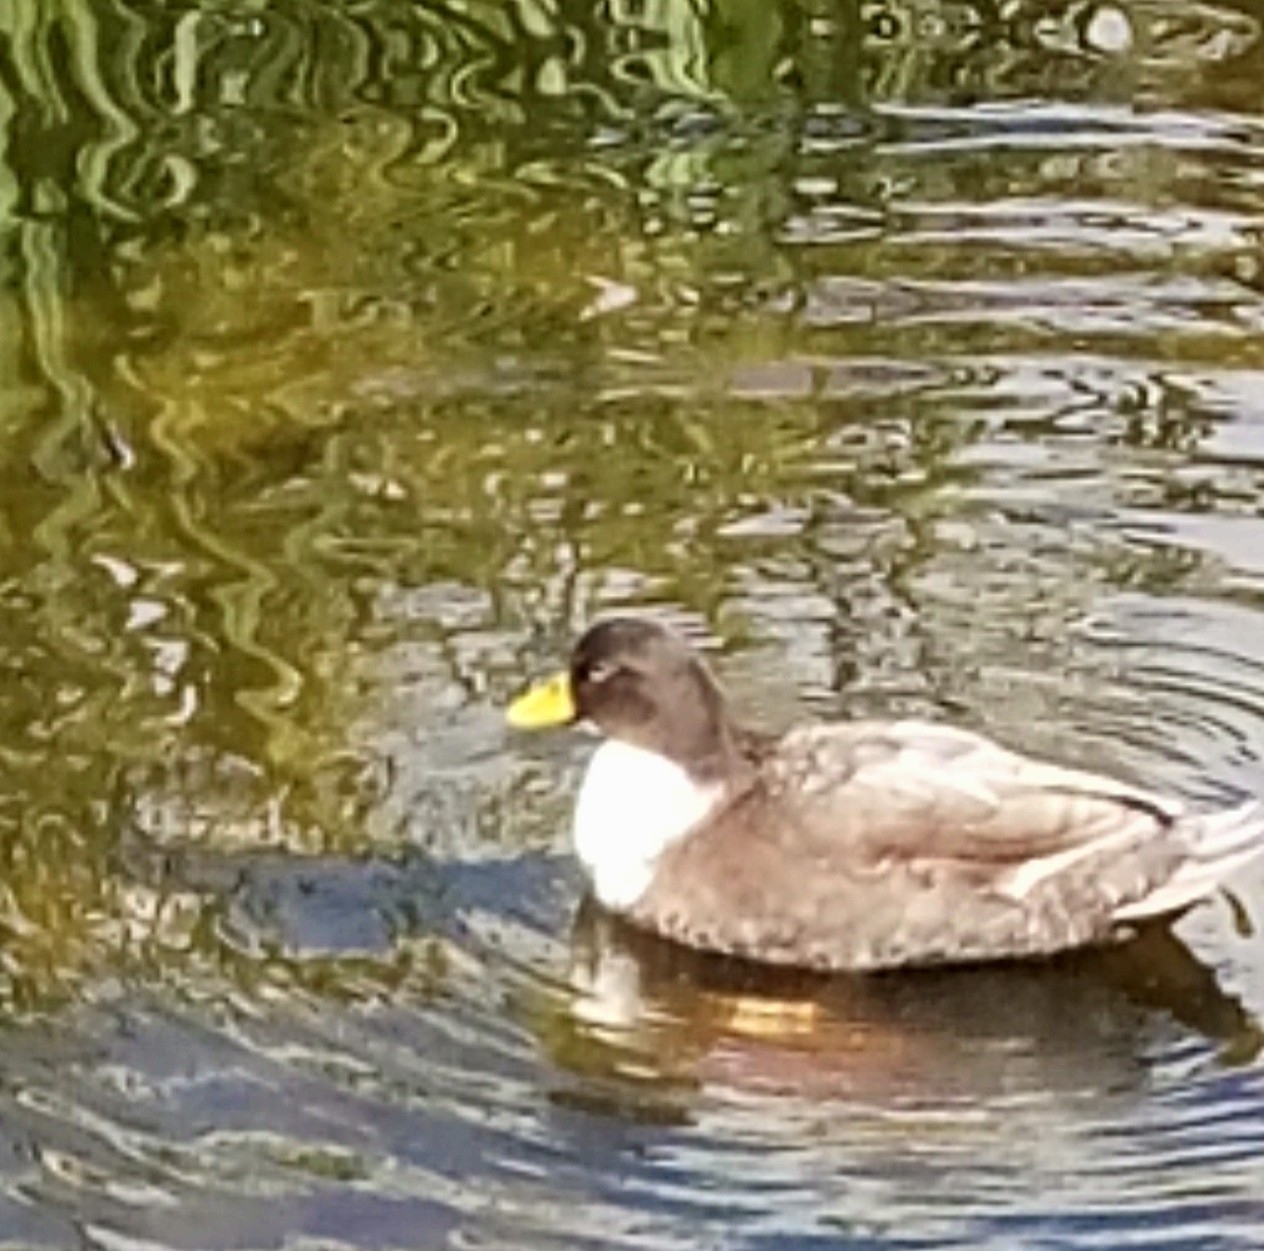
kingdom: Animalia
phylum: Chordata
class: Aves
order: Anseriformes
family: Anatidae
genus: Anas
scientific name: Anas platyrhynchos
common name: Mallard
